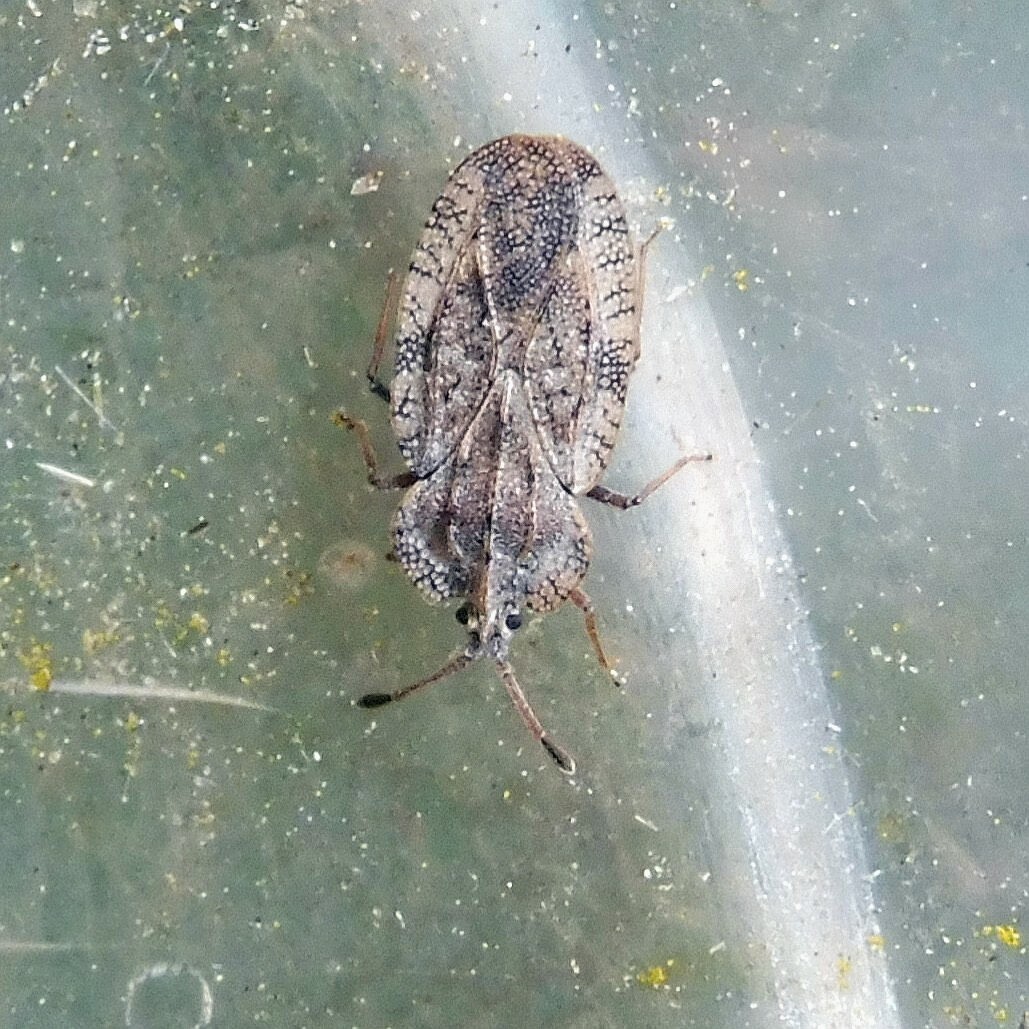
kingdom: Animalia
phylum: Arthropoda
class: Insecta
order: Hemiptera
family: Tingidae
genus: Tingis
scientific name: Tingis ampliata
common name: Creeping thistle lacebug
